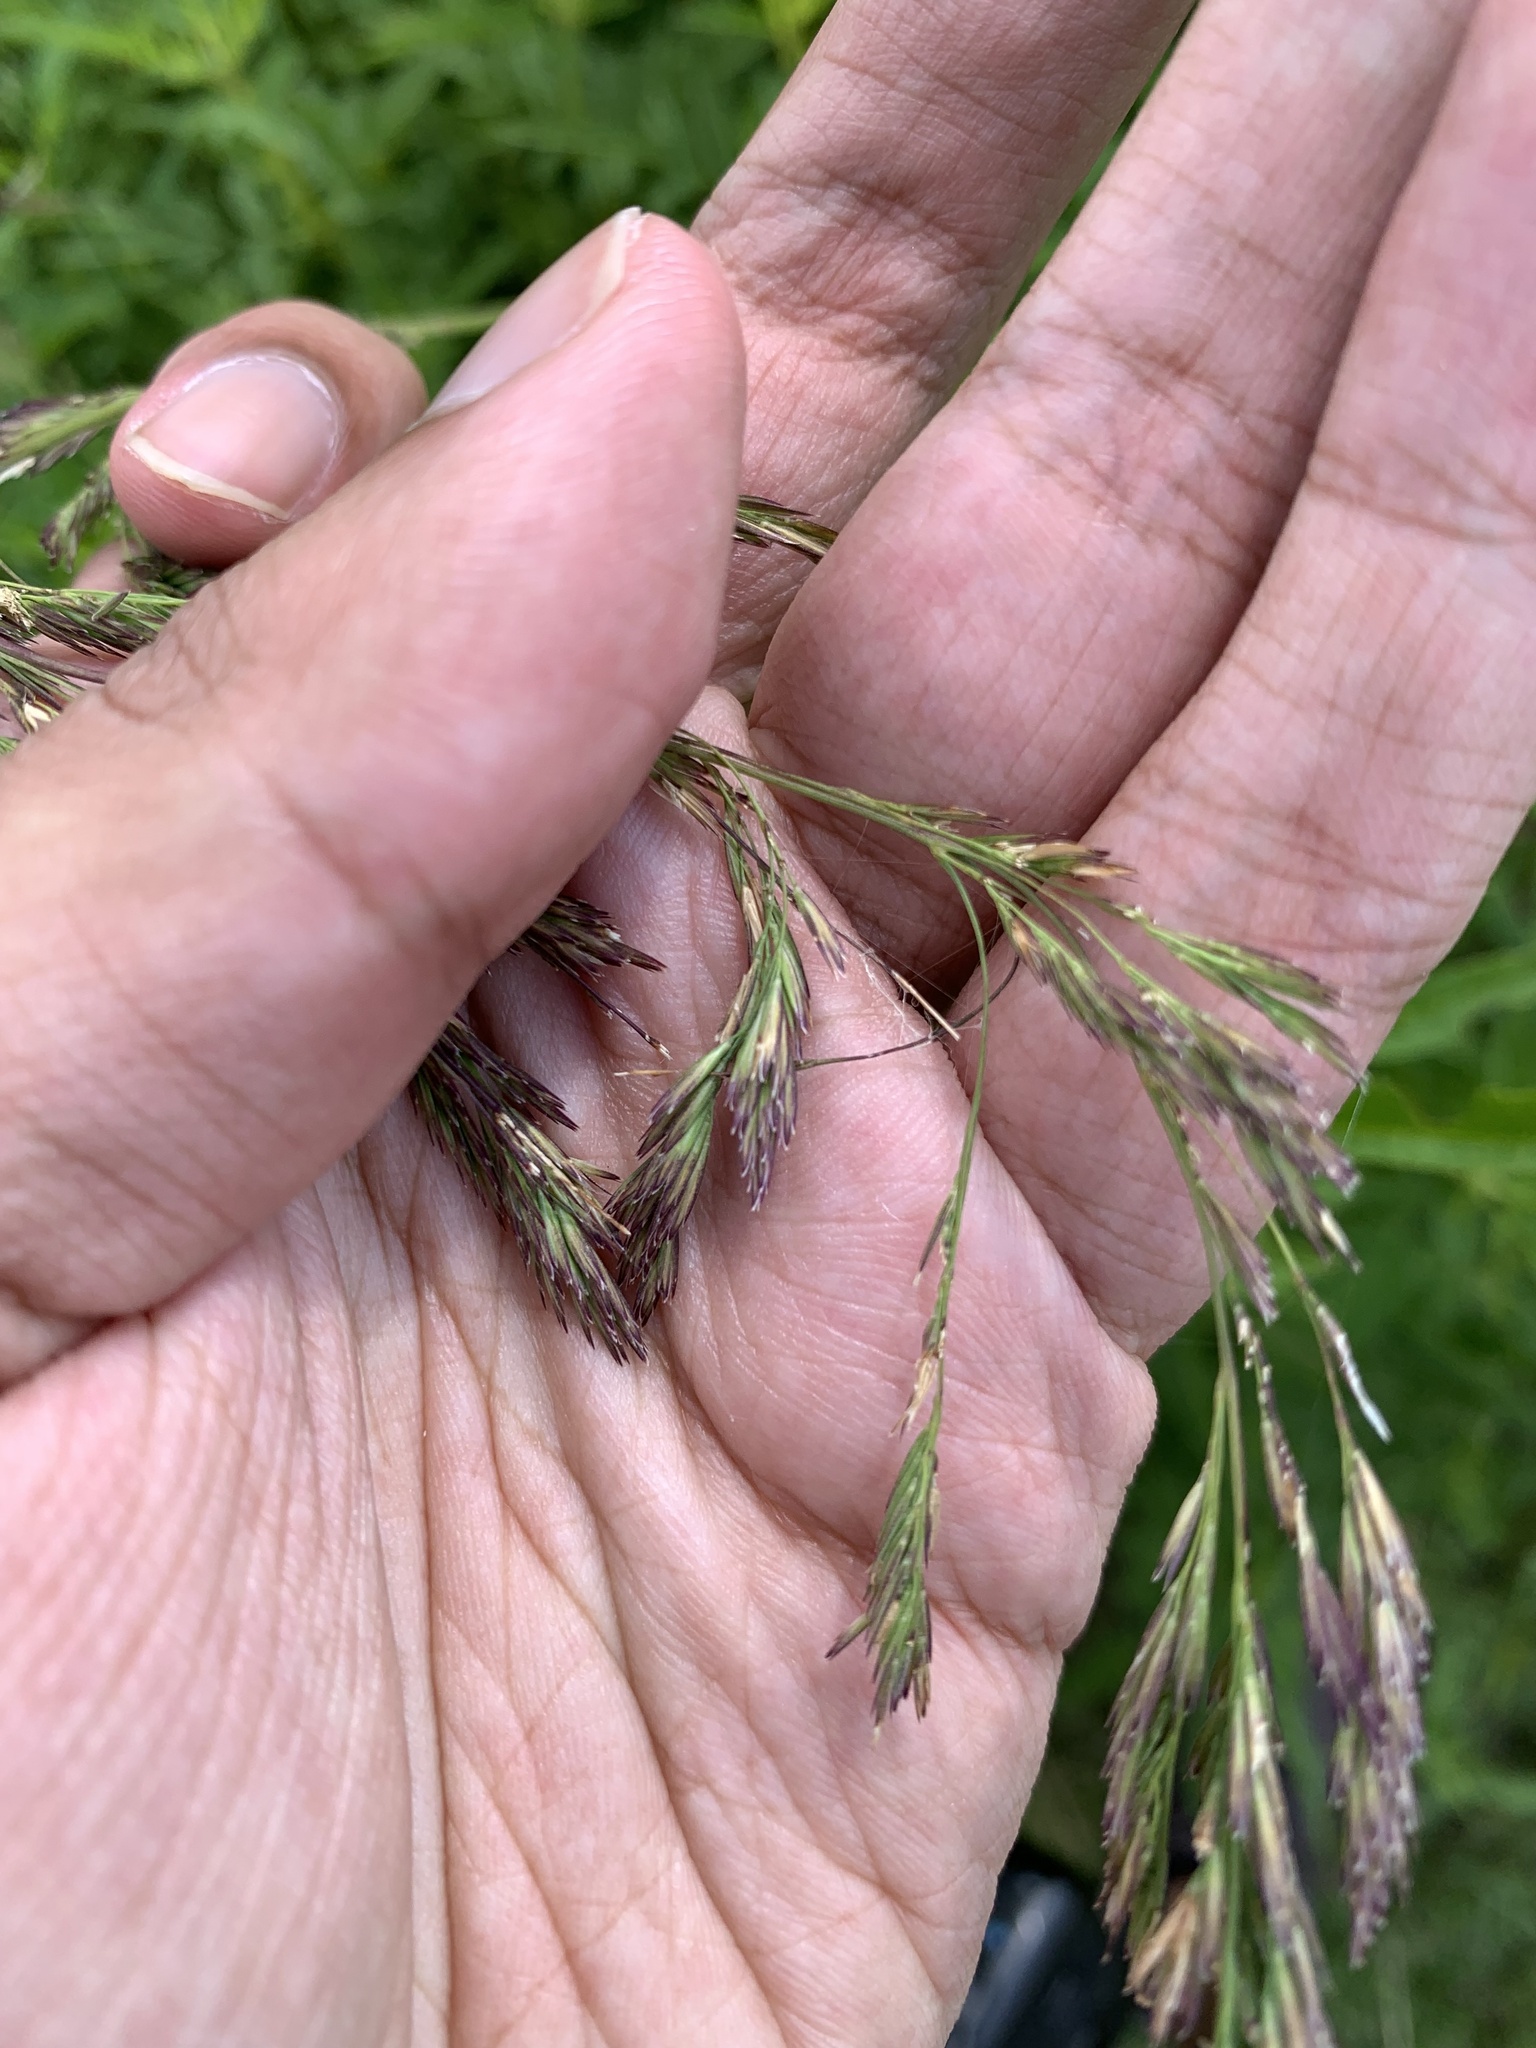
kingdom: Plantae
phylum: Tracheophyta
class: Liliopsida
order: Poales
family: Poaceae
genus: Cinna
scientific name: Cinna arundinacea
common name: Stout woodreed
